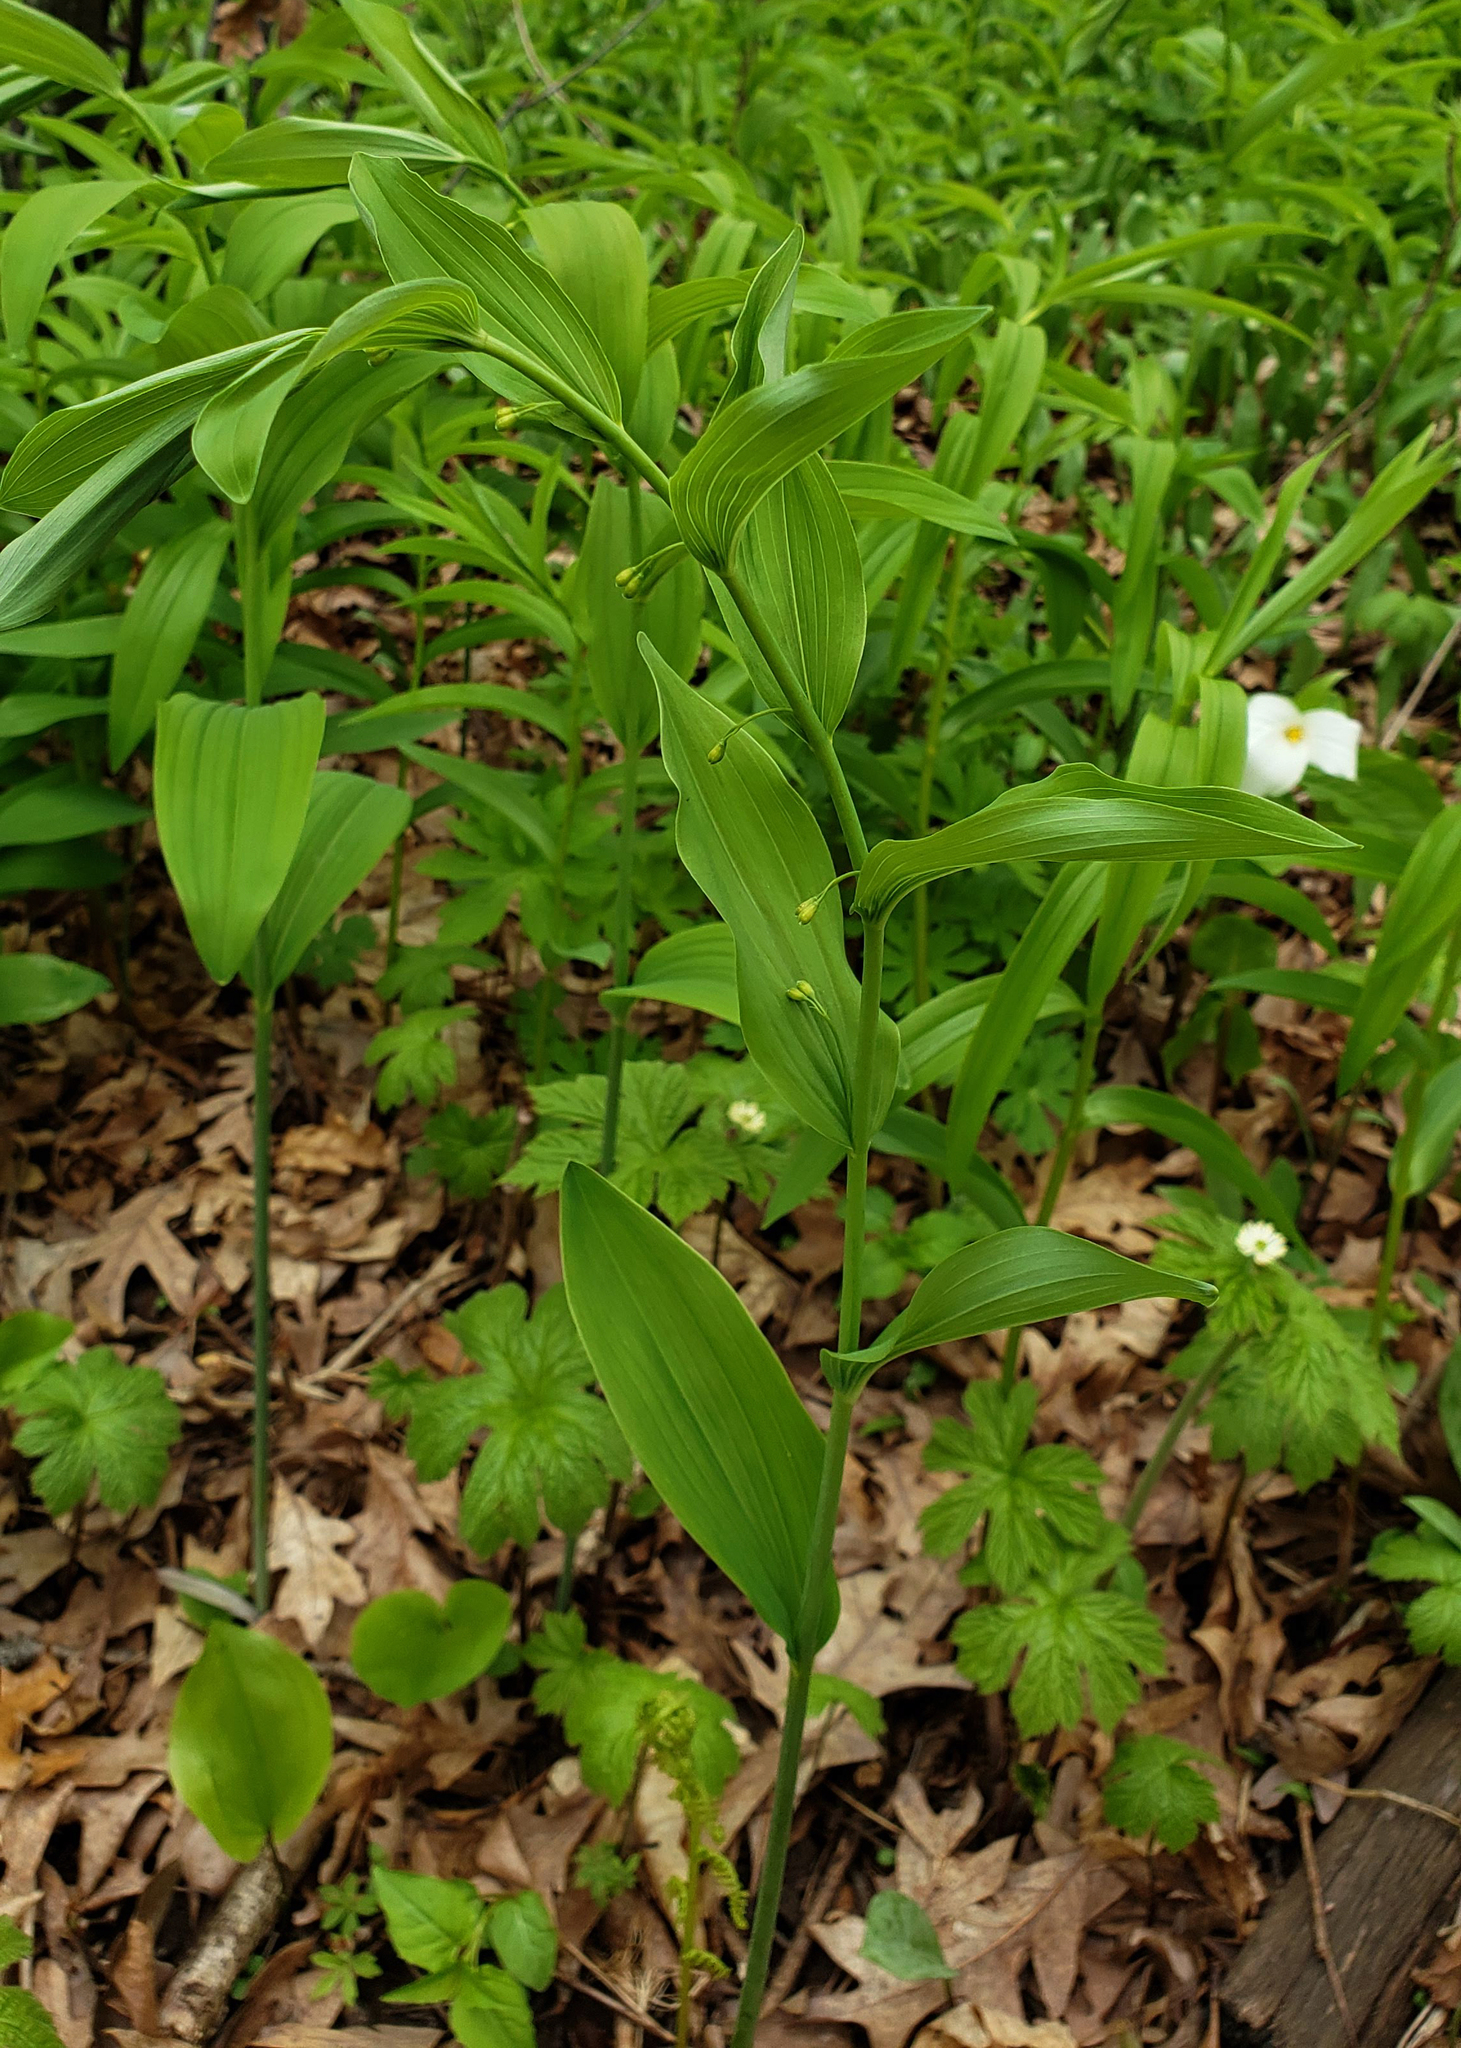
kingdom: Plantae
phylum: Tracheophyta
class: Liliopsida
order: Asparagales
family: Asparagaceae
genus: Polygonatum
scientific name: Polygonatum biflorum
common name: American solomon's-seal
